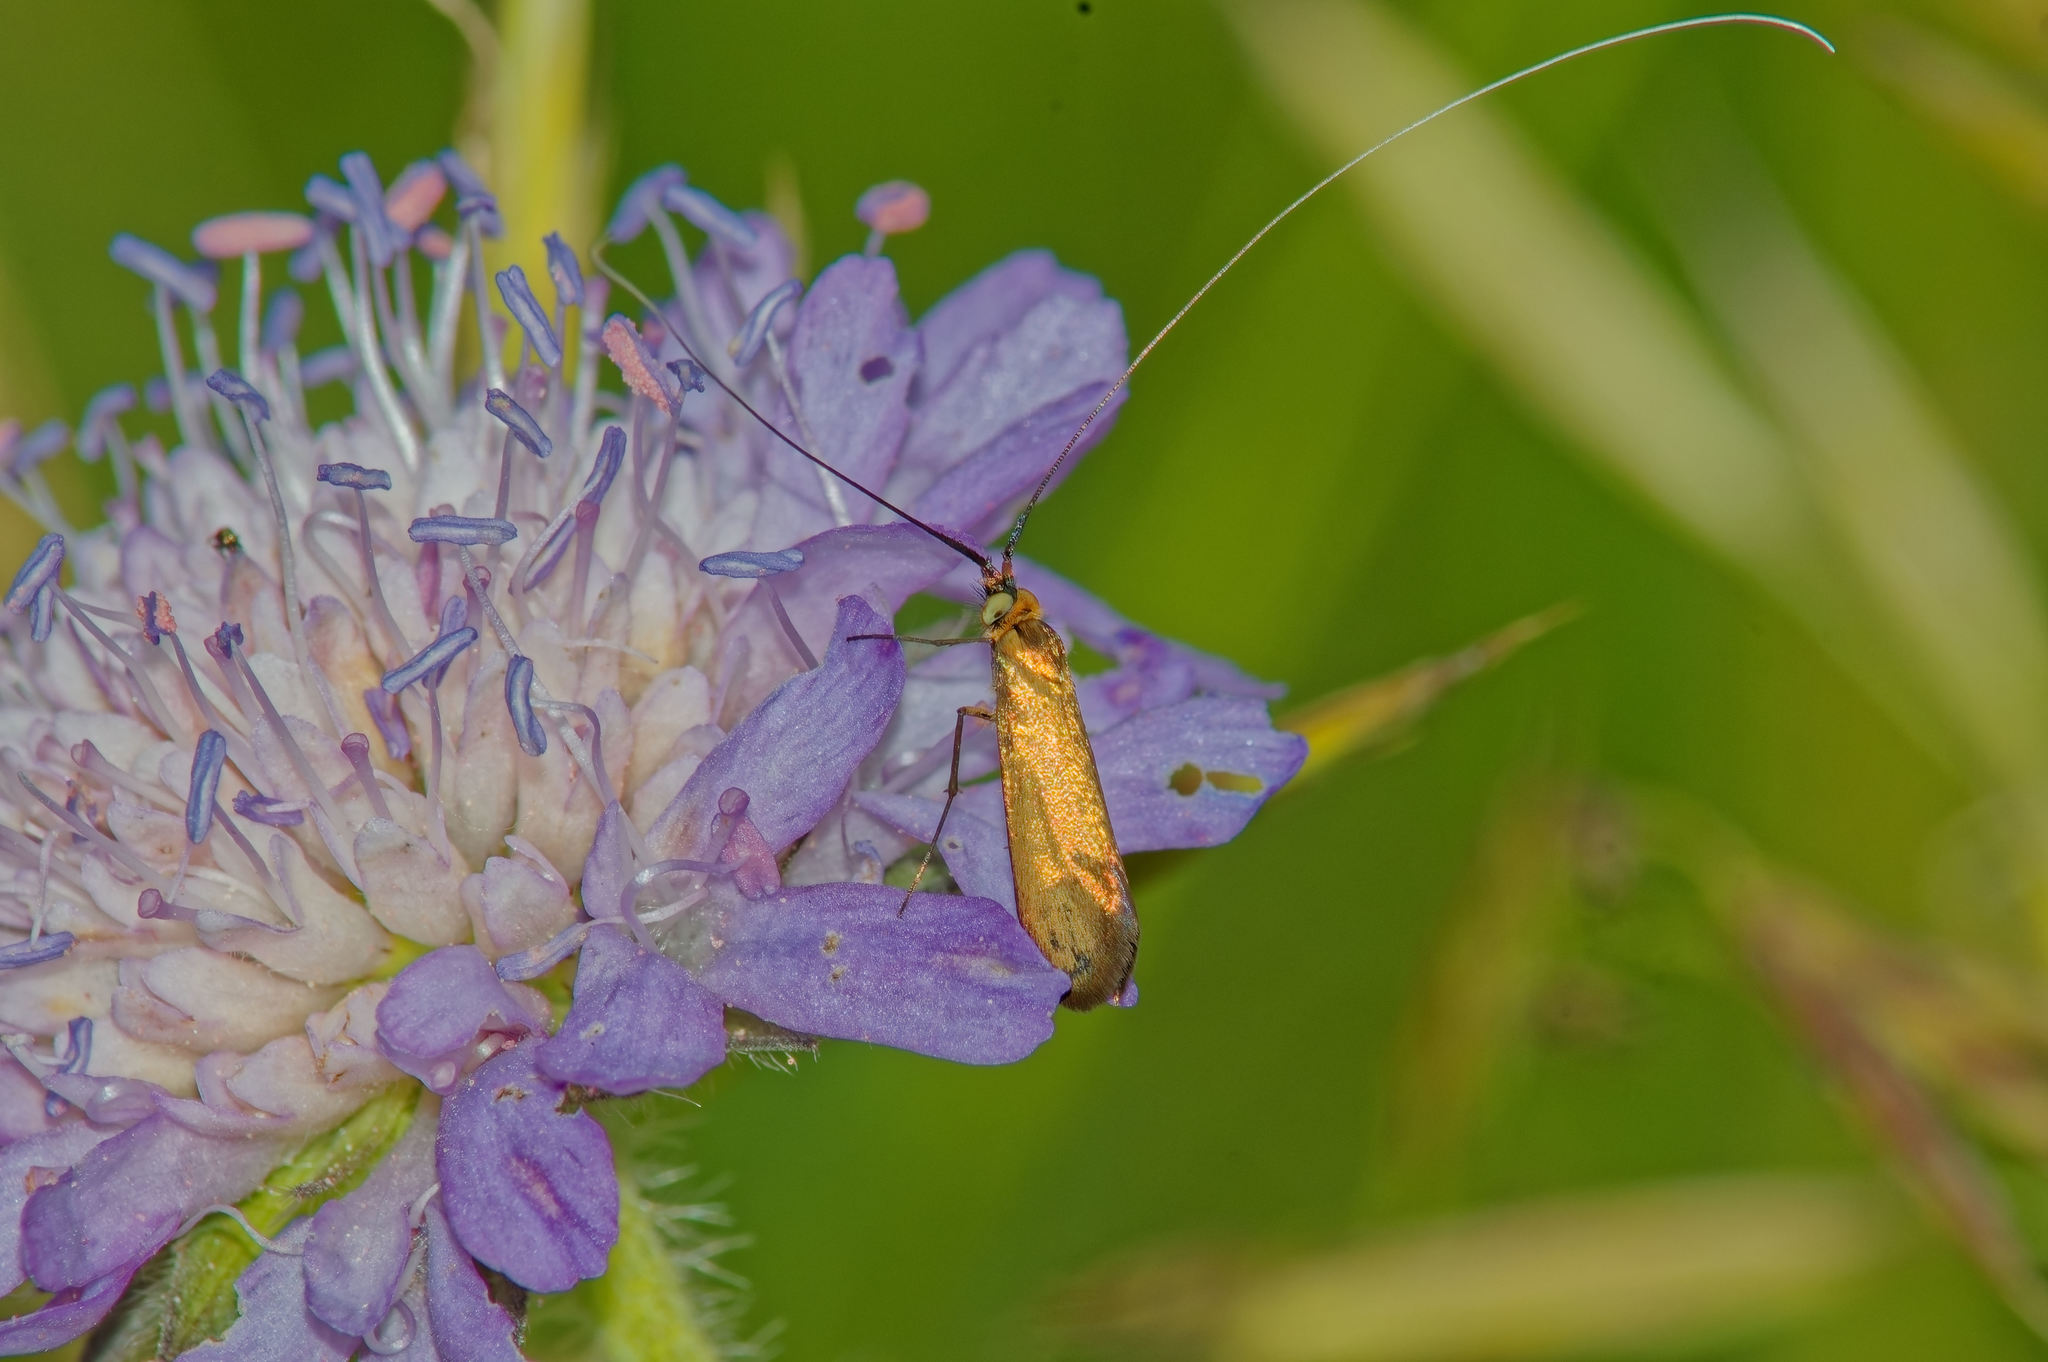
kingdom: Animalia
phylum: Arthropoda
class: Insecta
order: Lepidoptera
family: Adelidae
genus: Nemophora
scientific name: Nemophora metallica
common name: Brassy long-horn
